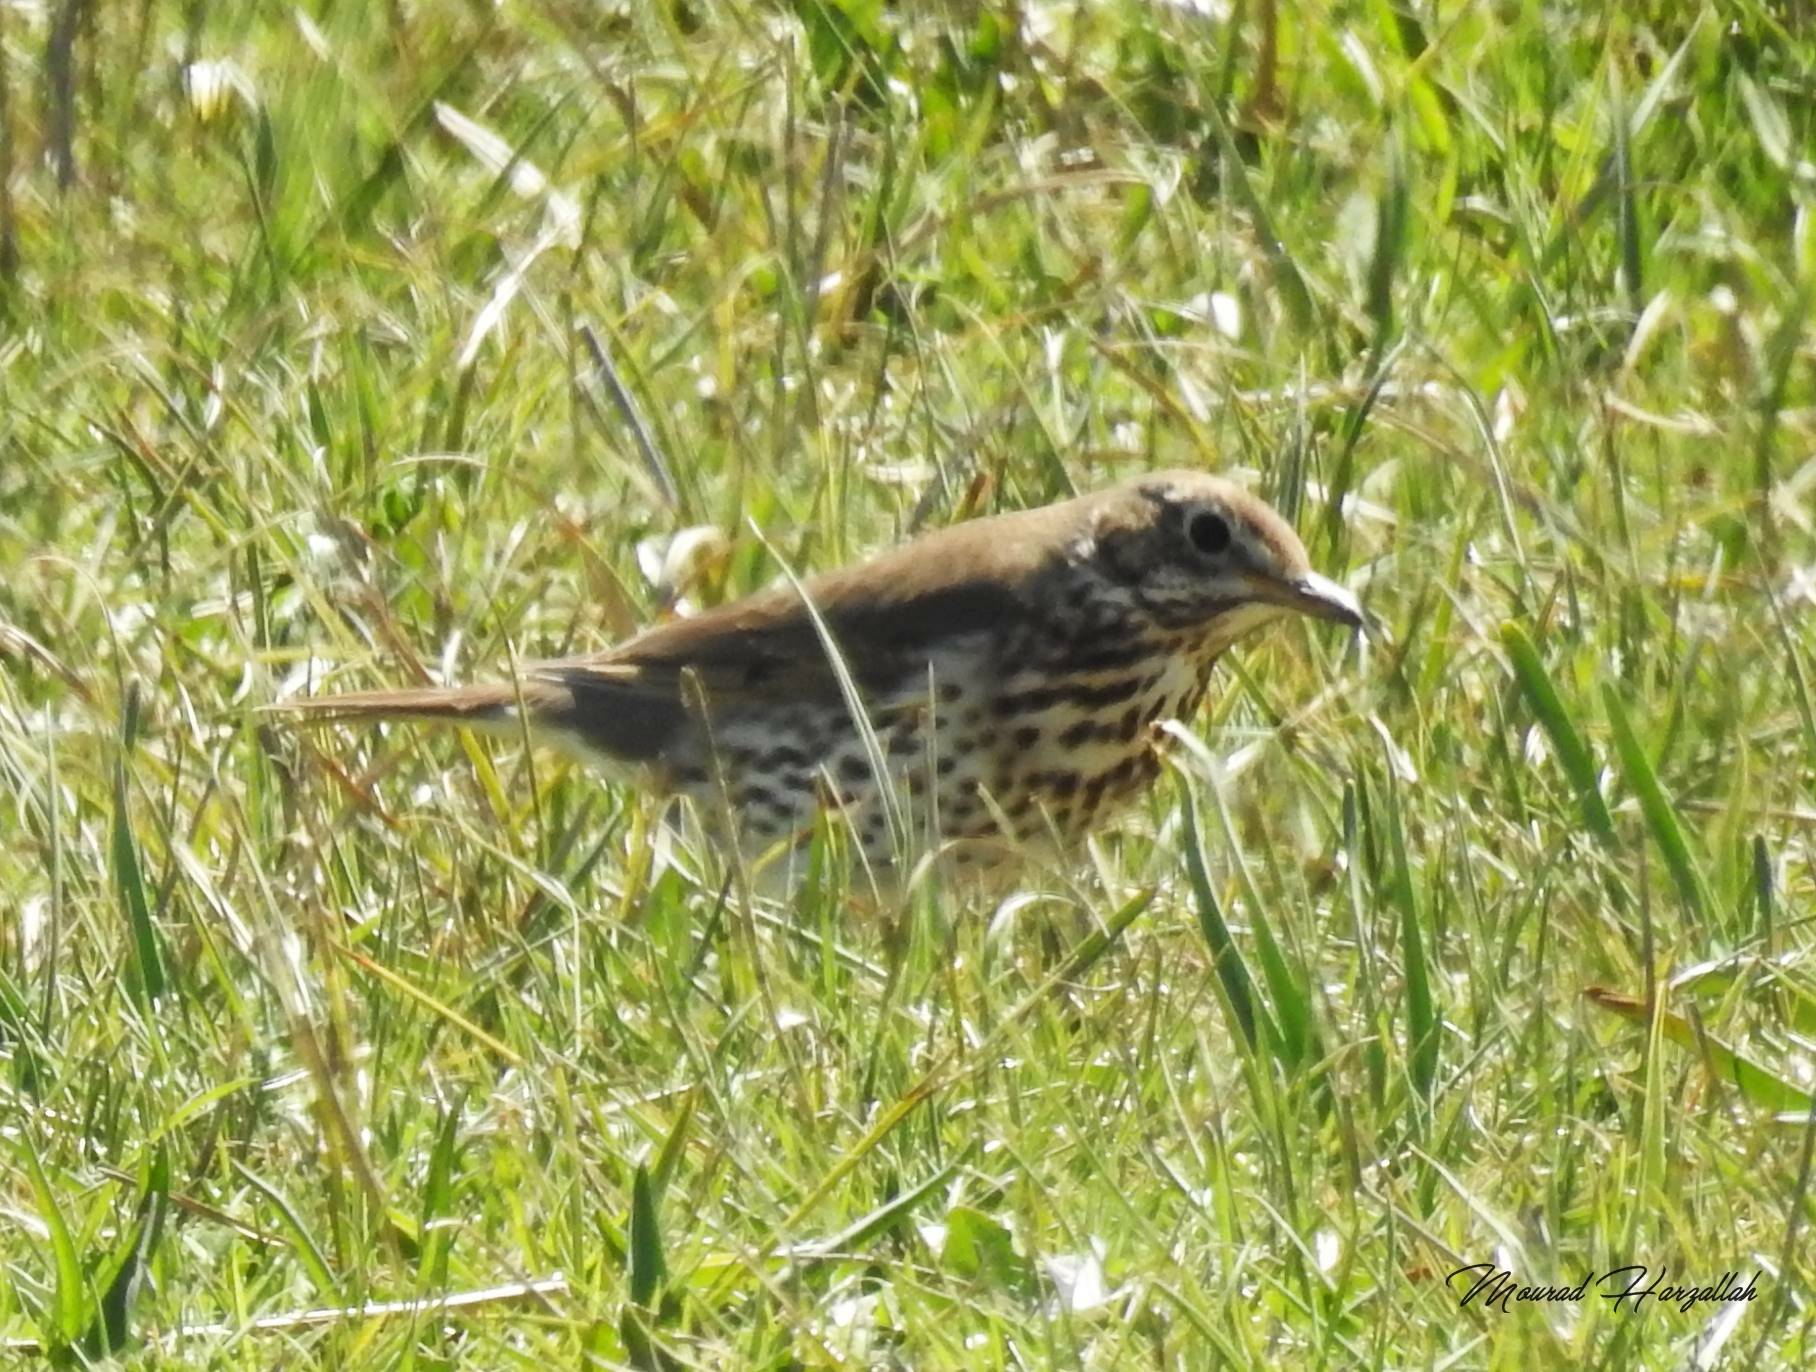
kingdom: Animalia
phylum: Chordata
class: Aves
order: Passeriformes
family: Turdidae
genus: Turdus
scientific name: Turdus philomelos
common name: Song thrush
